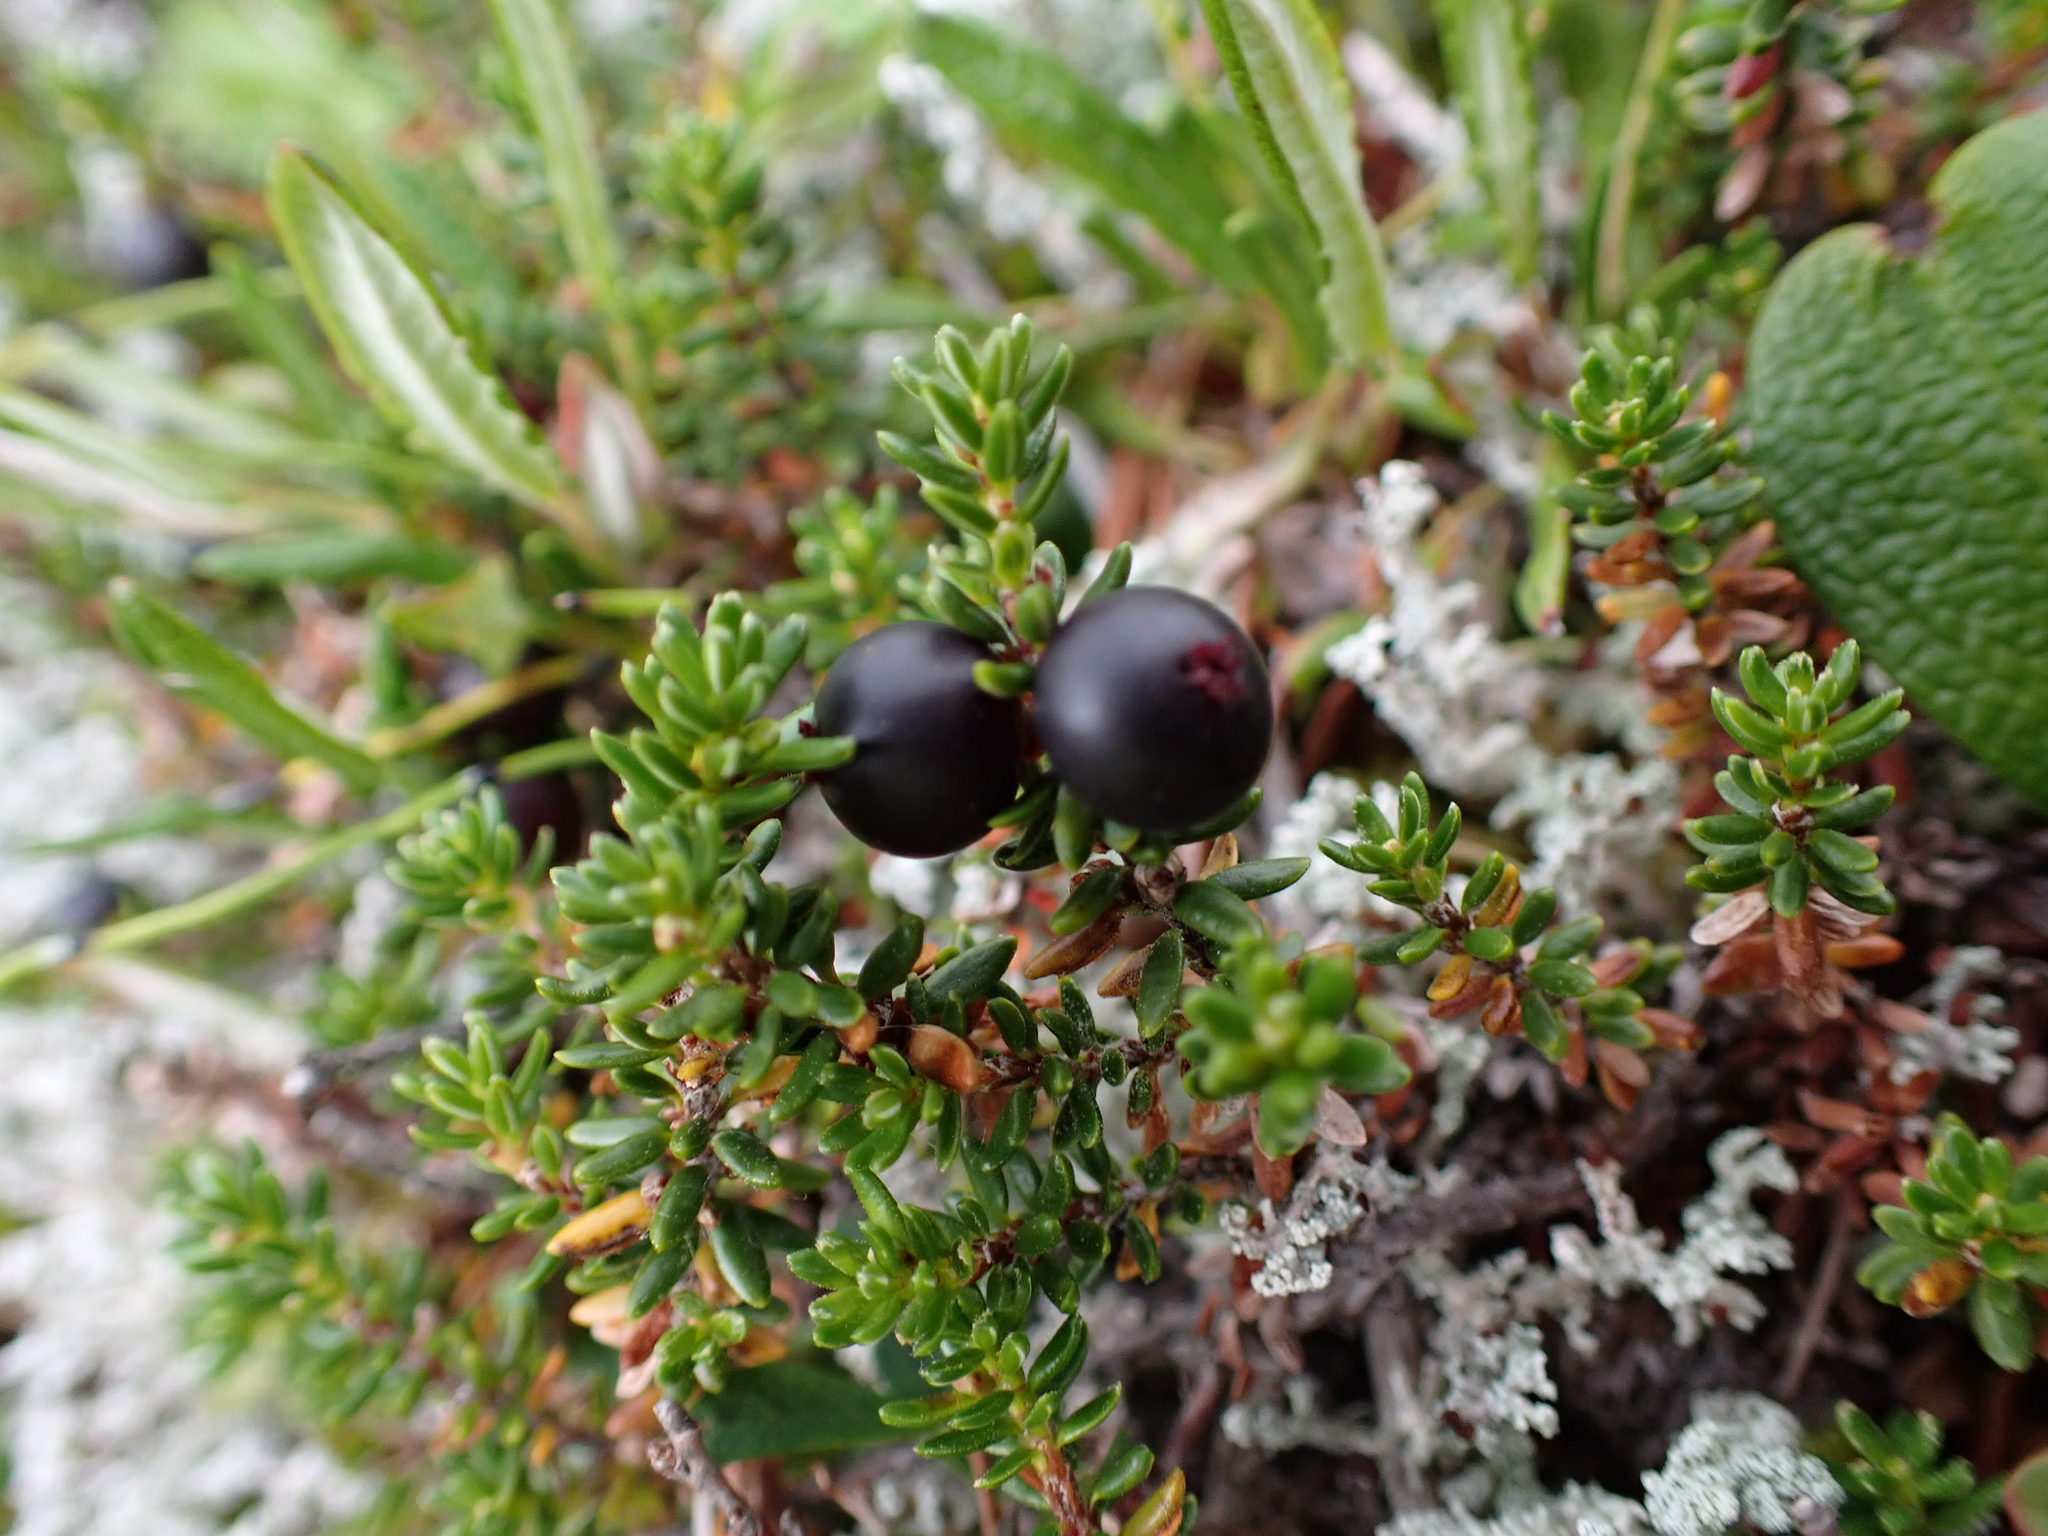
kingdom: Plantae
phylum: Tracheophyta
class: Magnoliopsida
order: Ericales
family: Ericaceae
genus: Empetrum
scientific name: Empetrum nigrum
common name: Black crowberry
